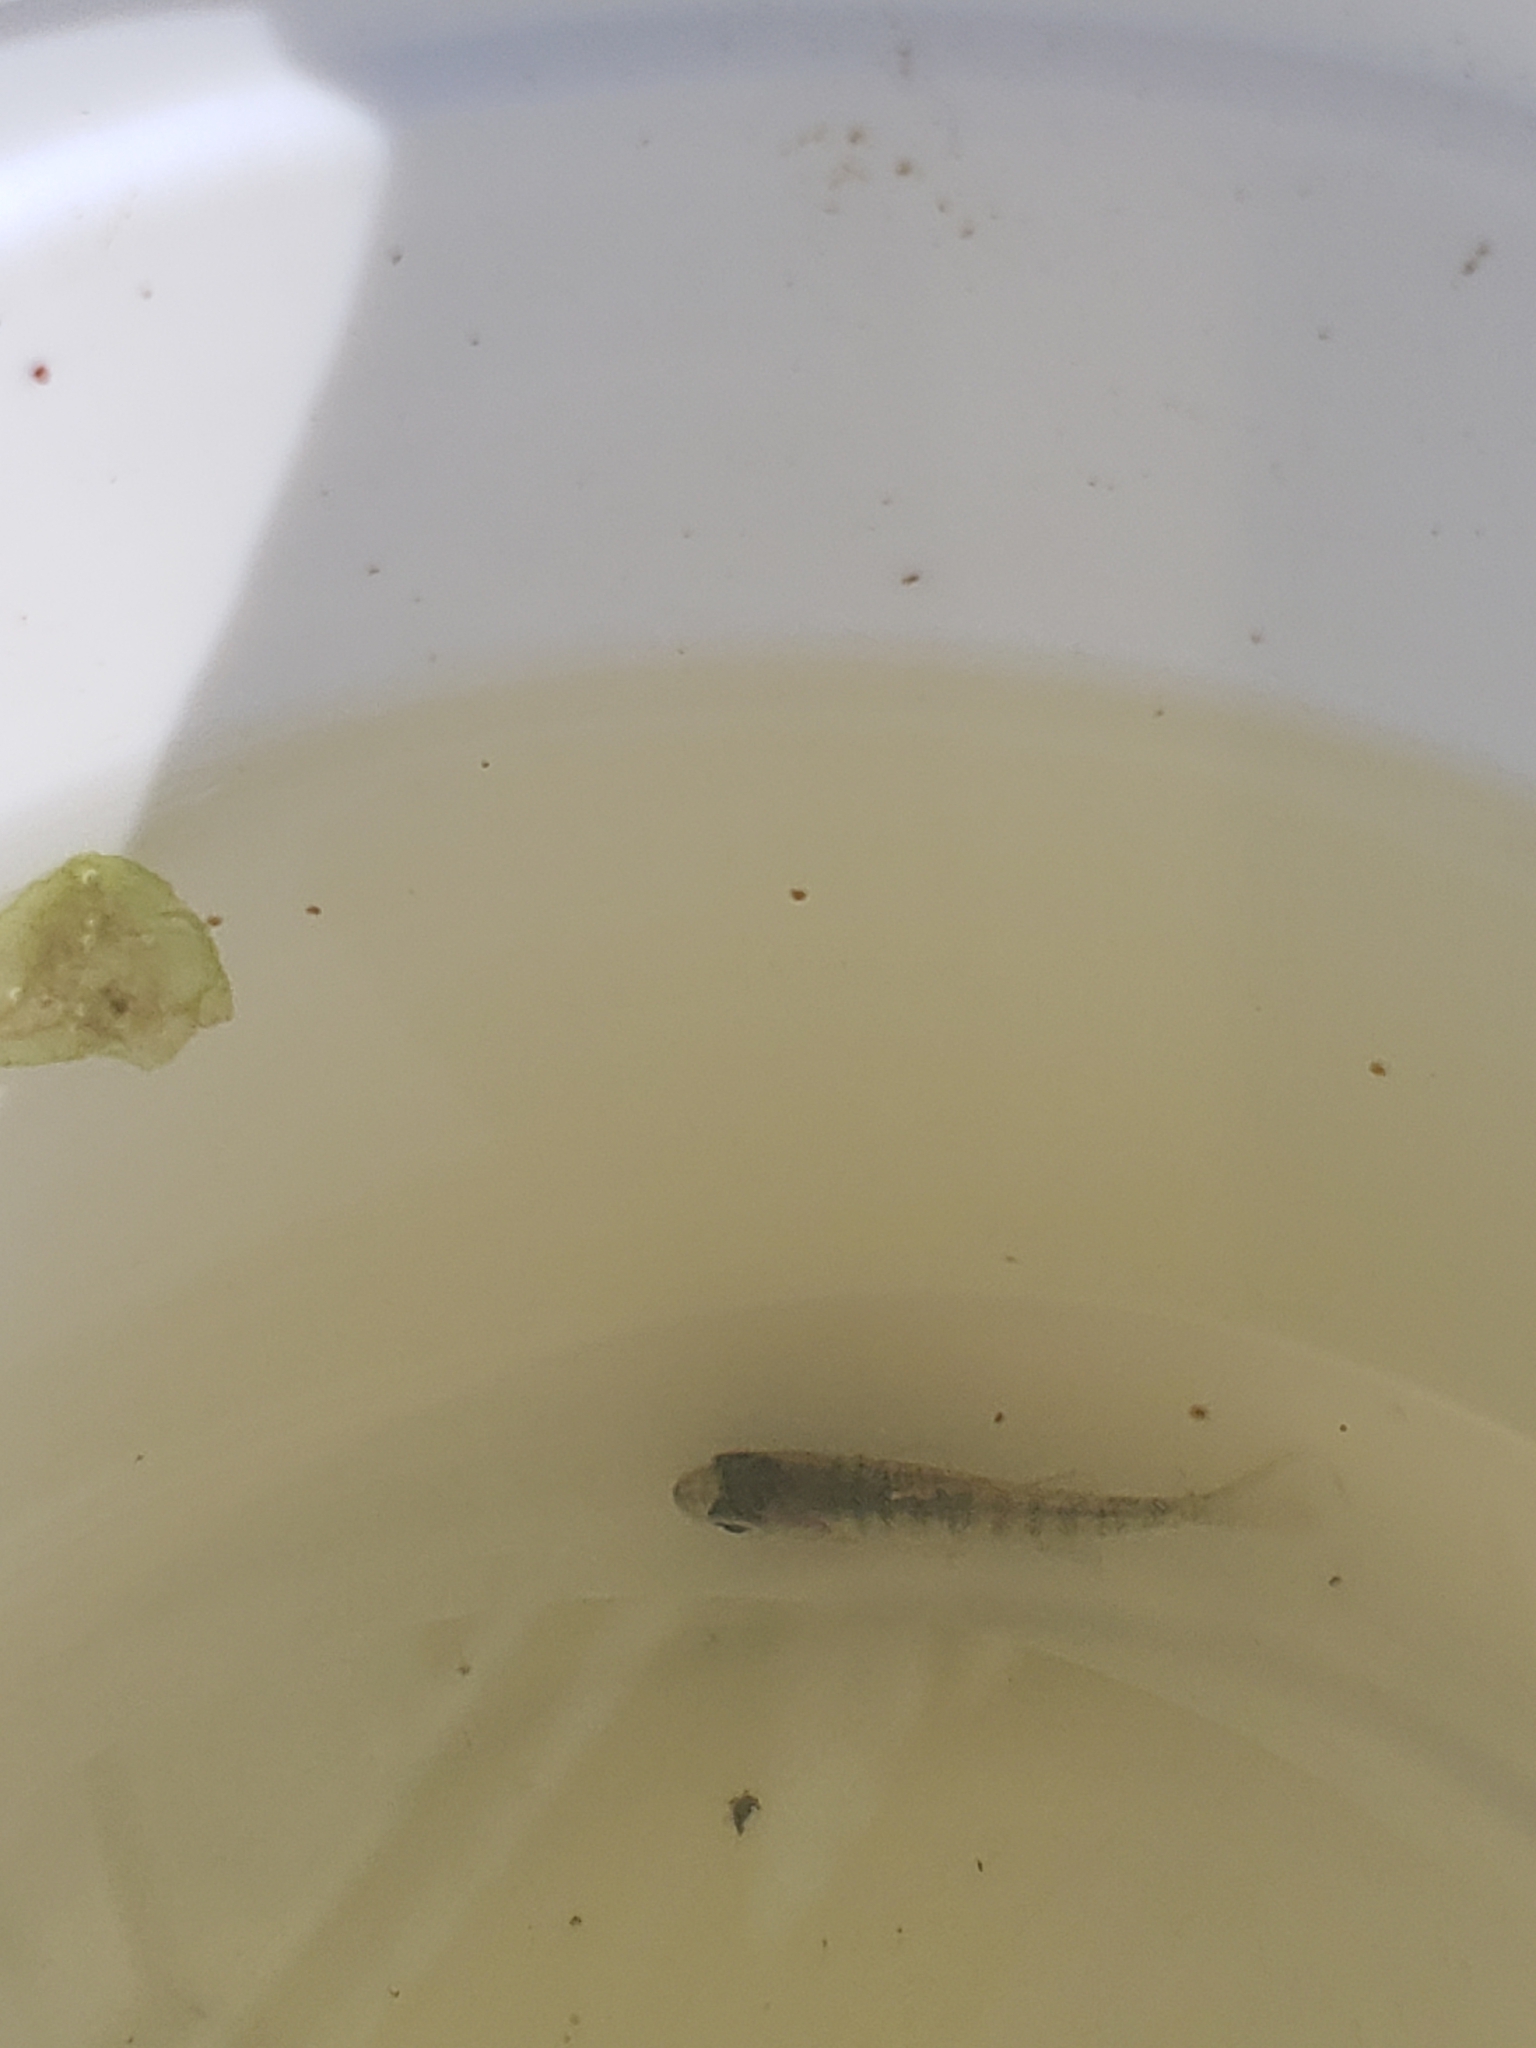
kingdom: Animalia
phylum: Chordata
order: Perciformes
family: Centrarchidae
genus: Lepomis
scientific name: Lepomis macrochirus
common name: Bluegill
